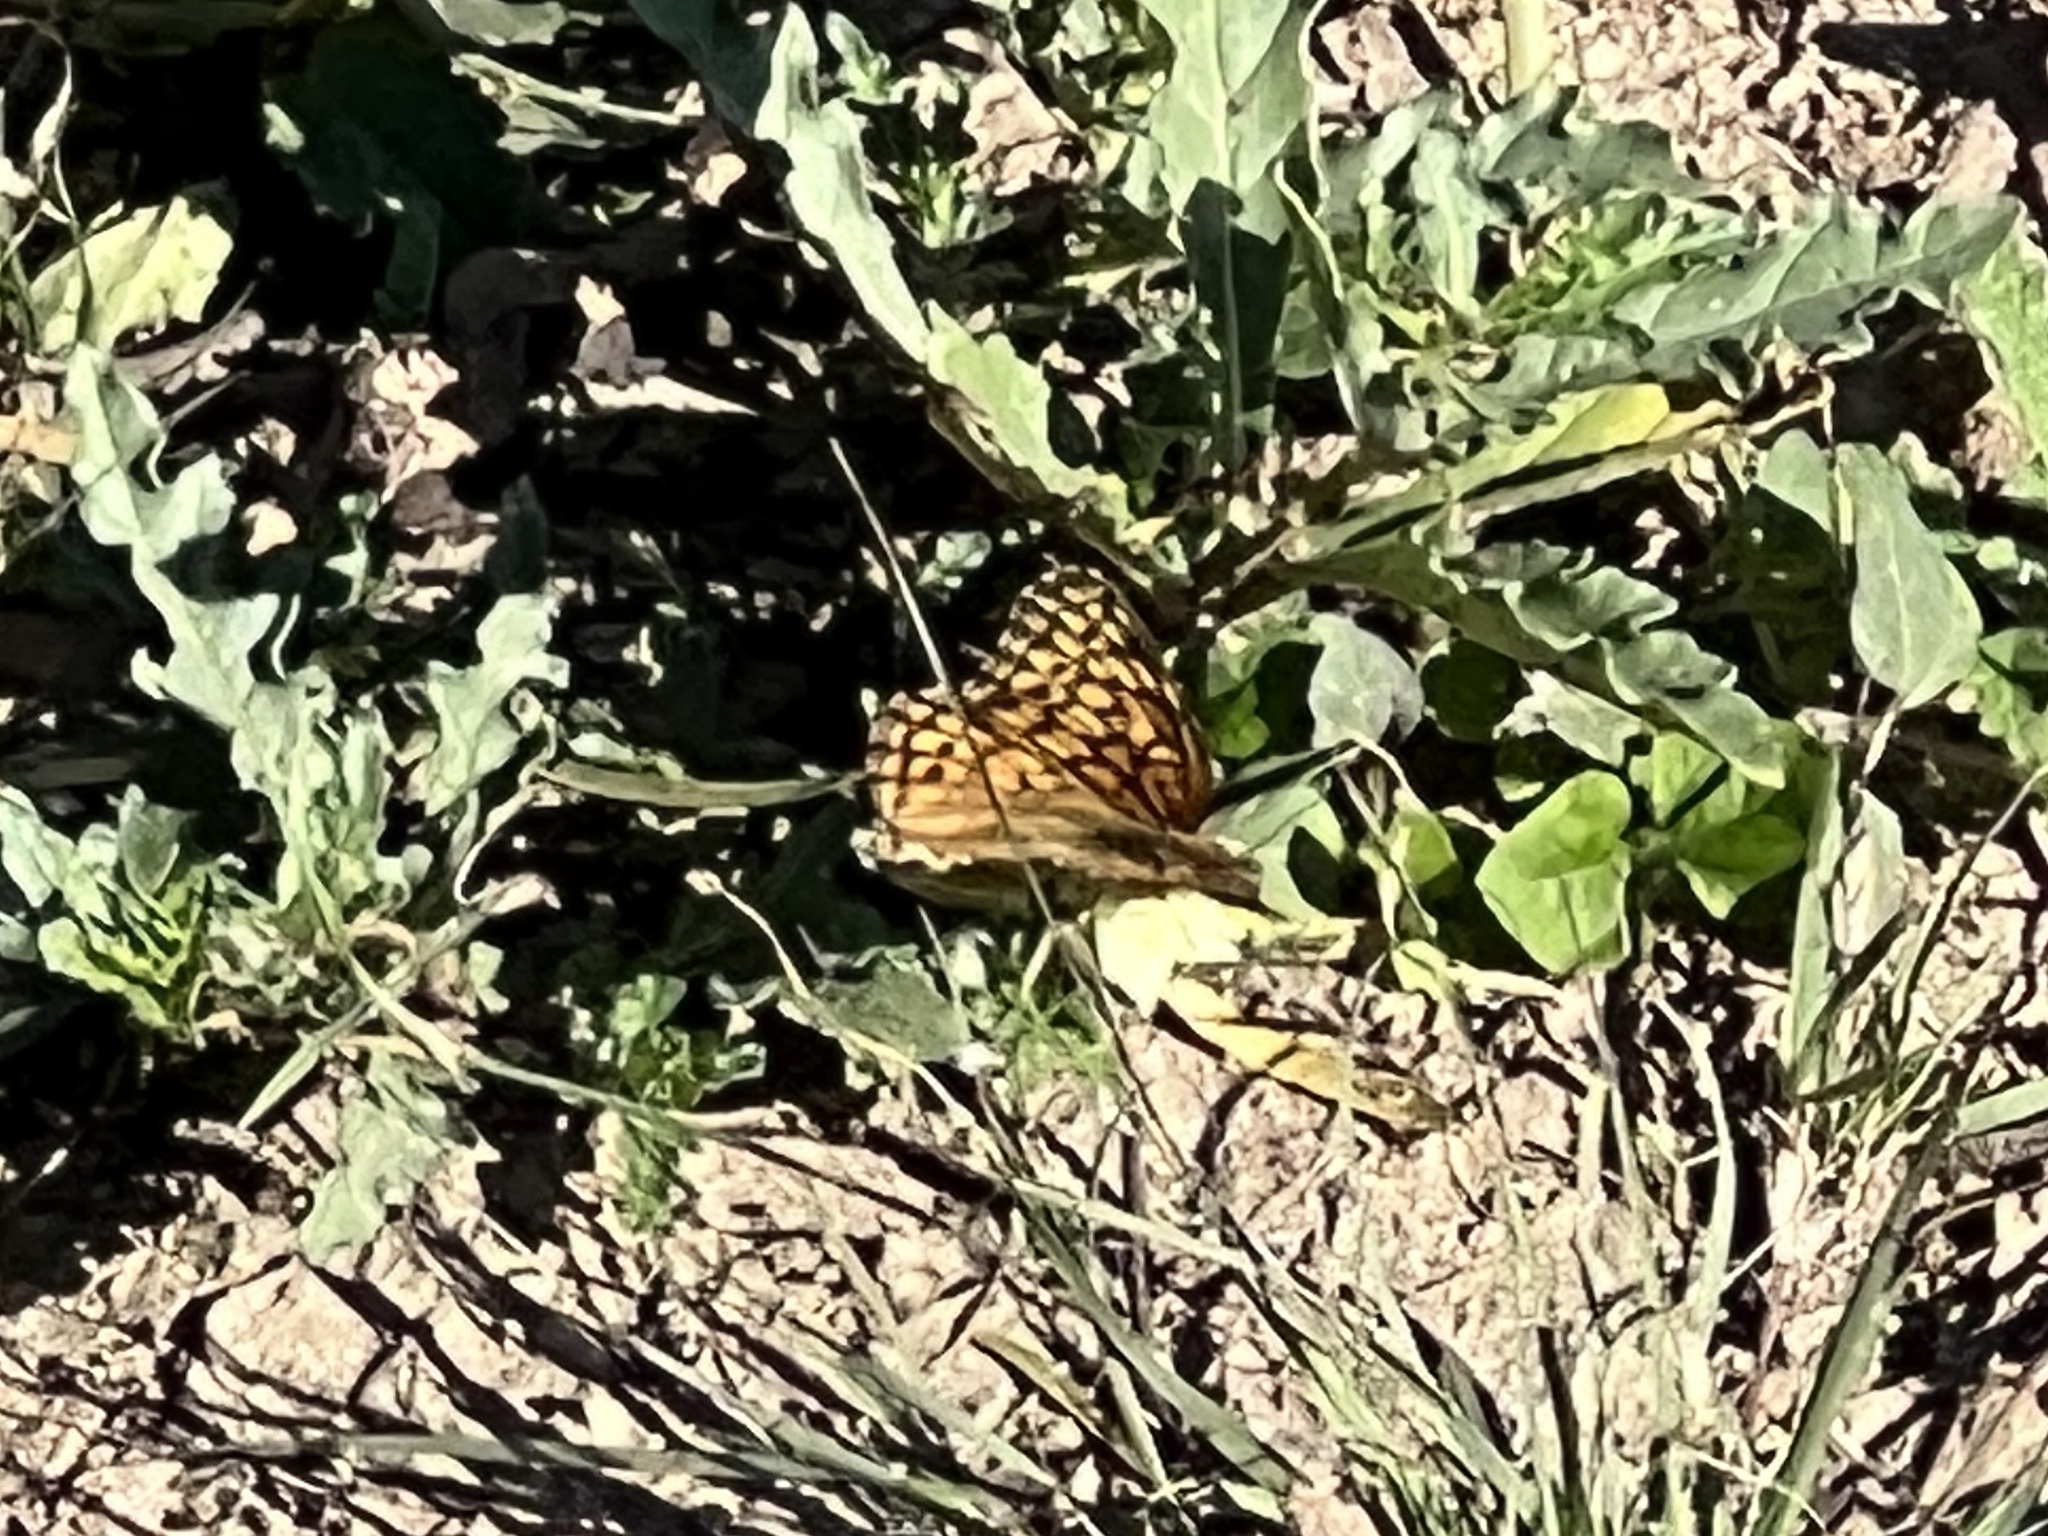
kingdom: Animalia
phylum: Arthropoda
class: Insecta
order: Lepidoptera
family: Nymphalidae
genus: Euptoieta
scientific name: Euptoieta claudia
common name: Variegated fritillary
